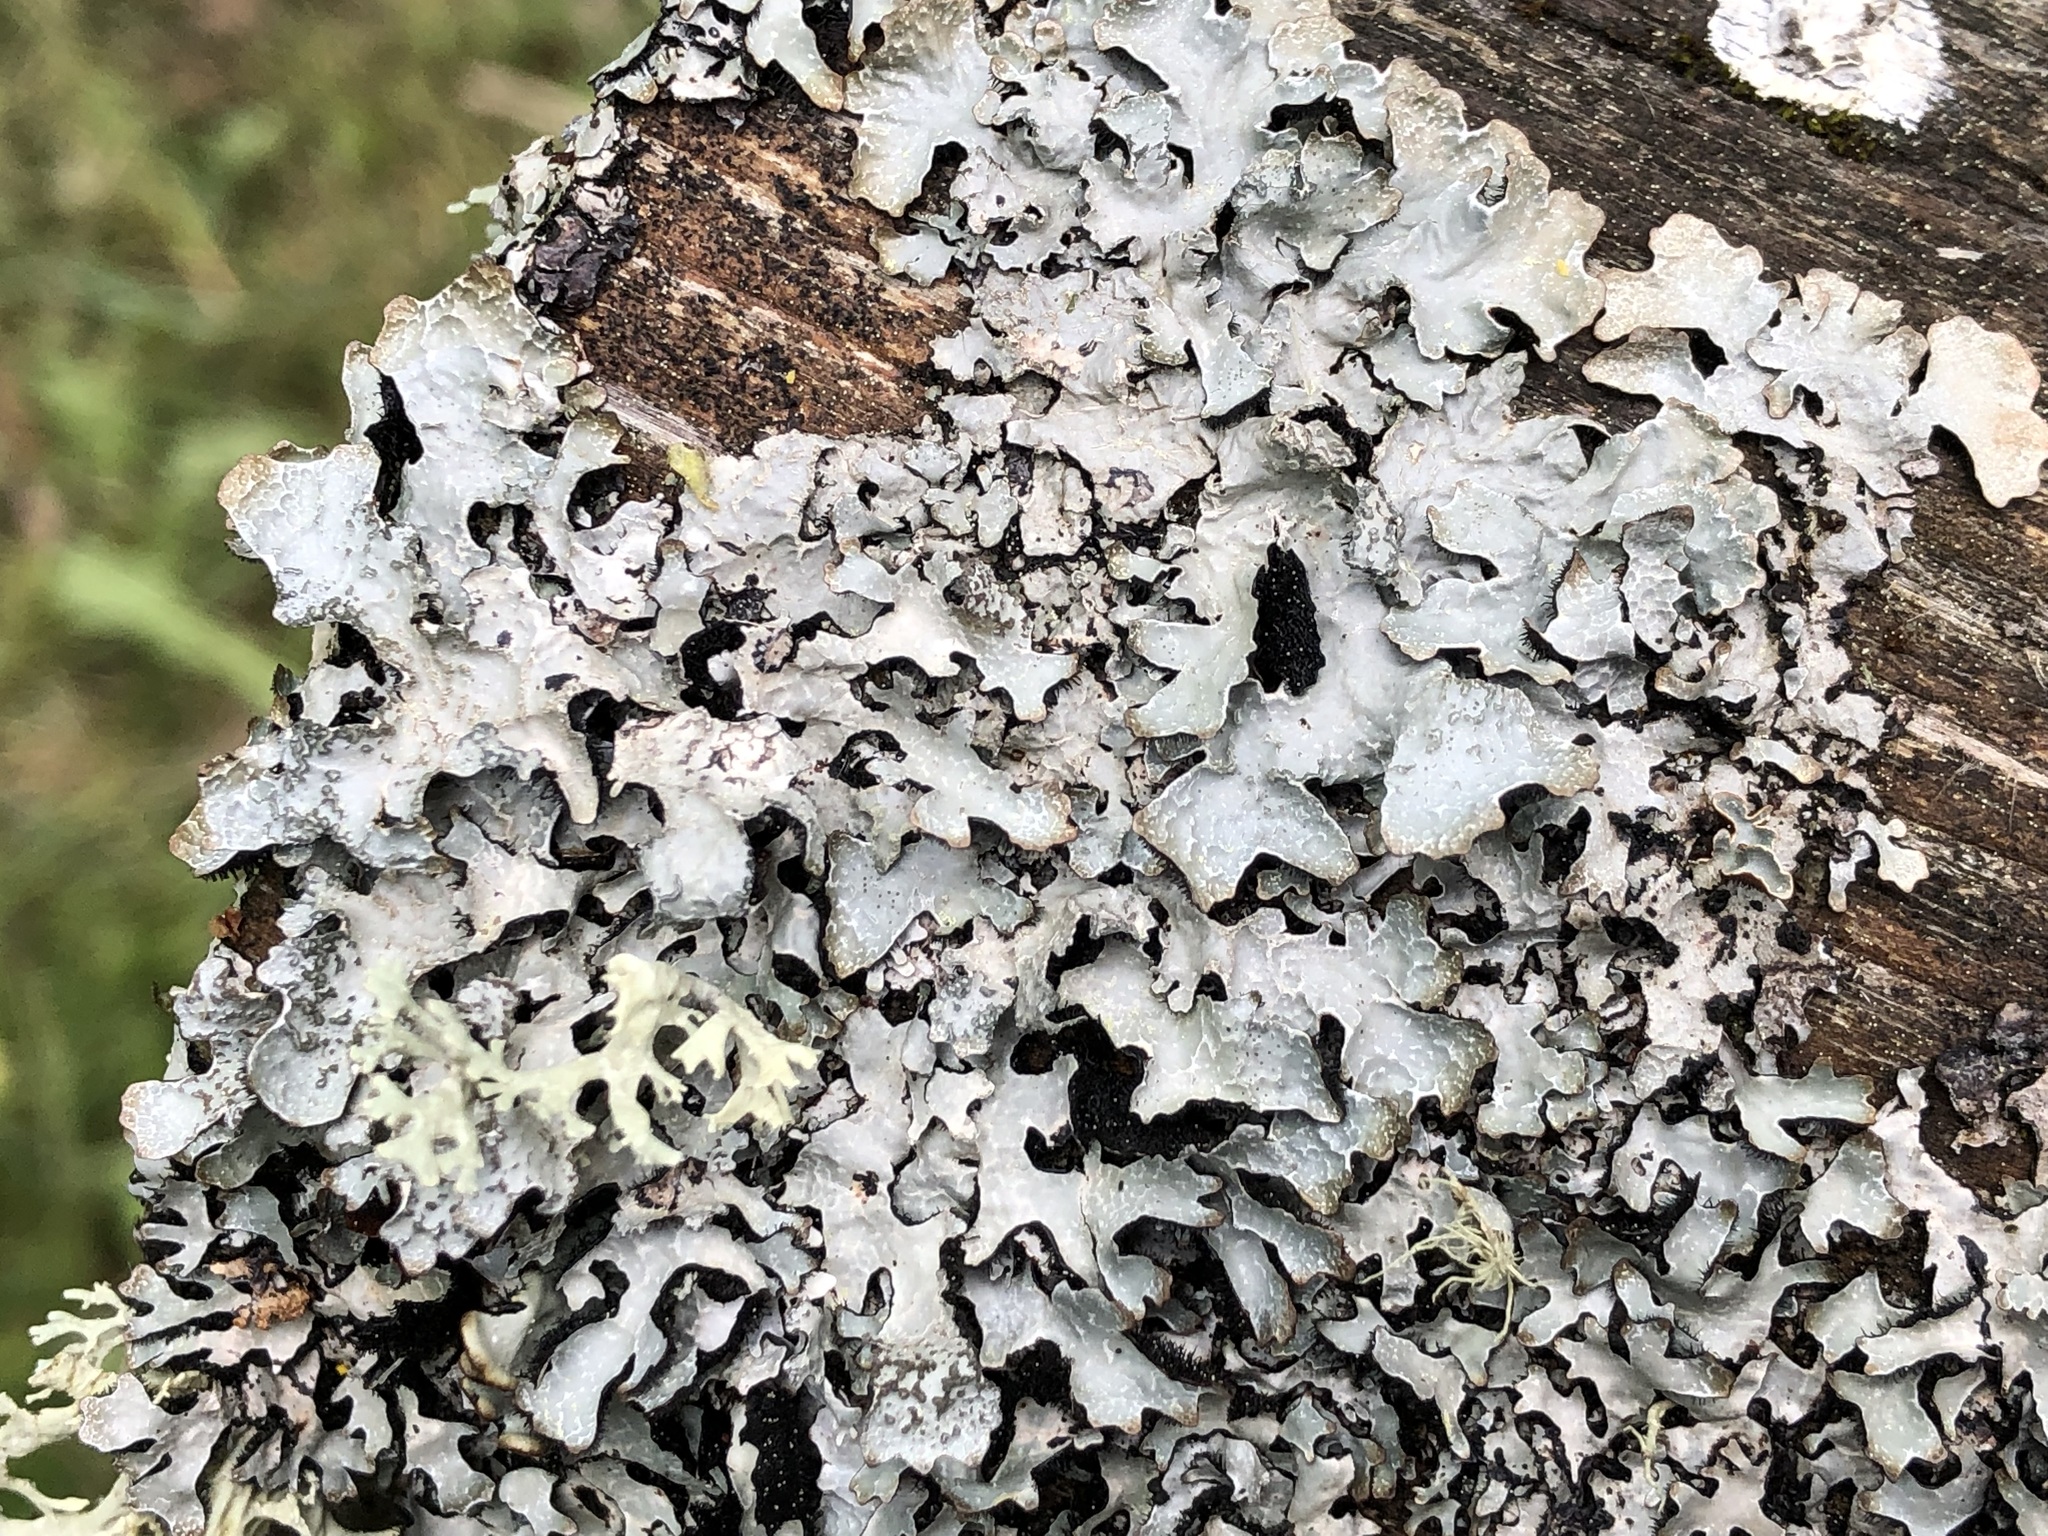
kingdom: Fungi
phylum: Ascomycota
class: Lecanoromycetes
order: Lecanorales
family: Parmeliaceae
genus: Parmelia
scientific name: Parmelia sulcata
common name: Netted shield lichen
